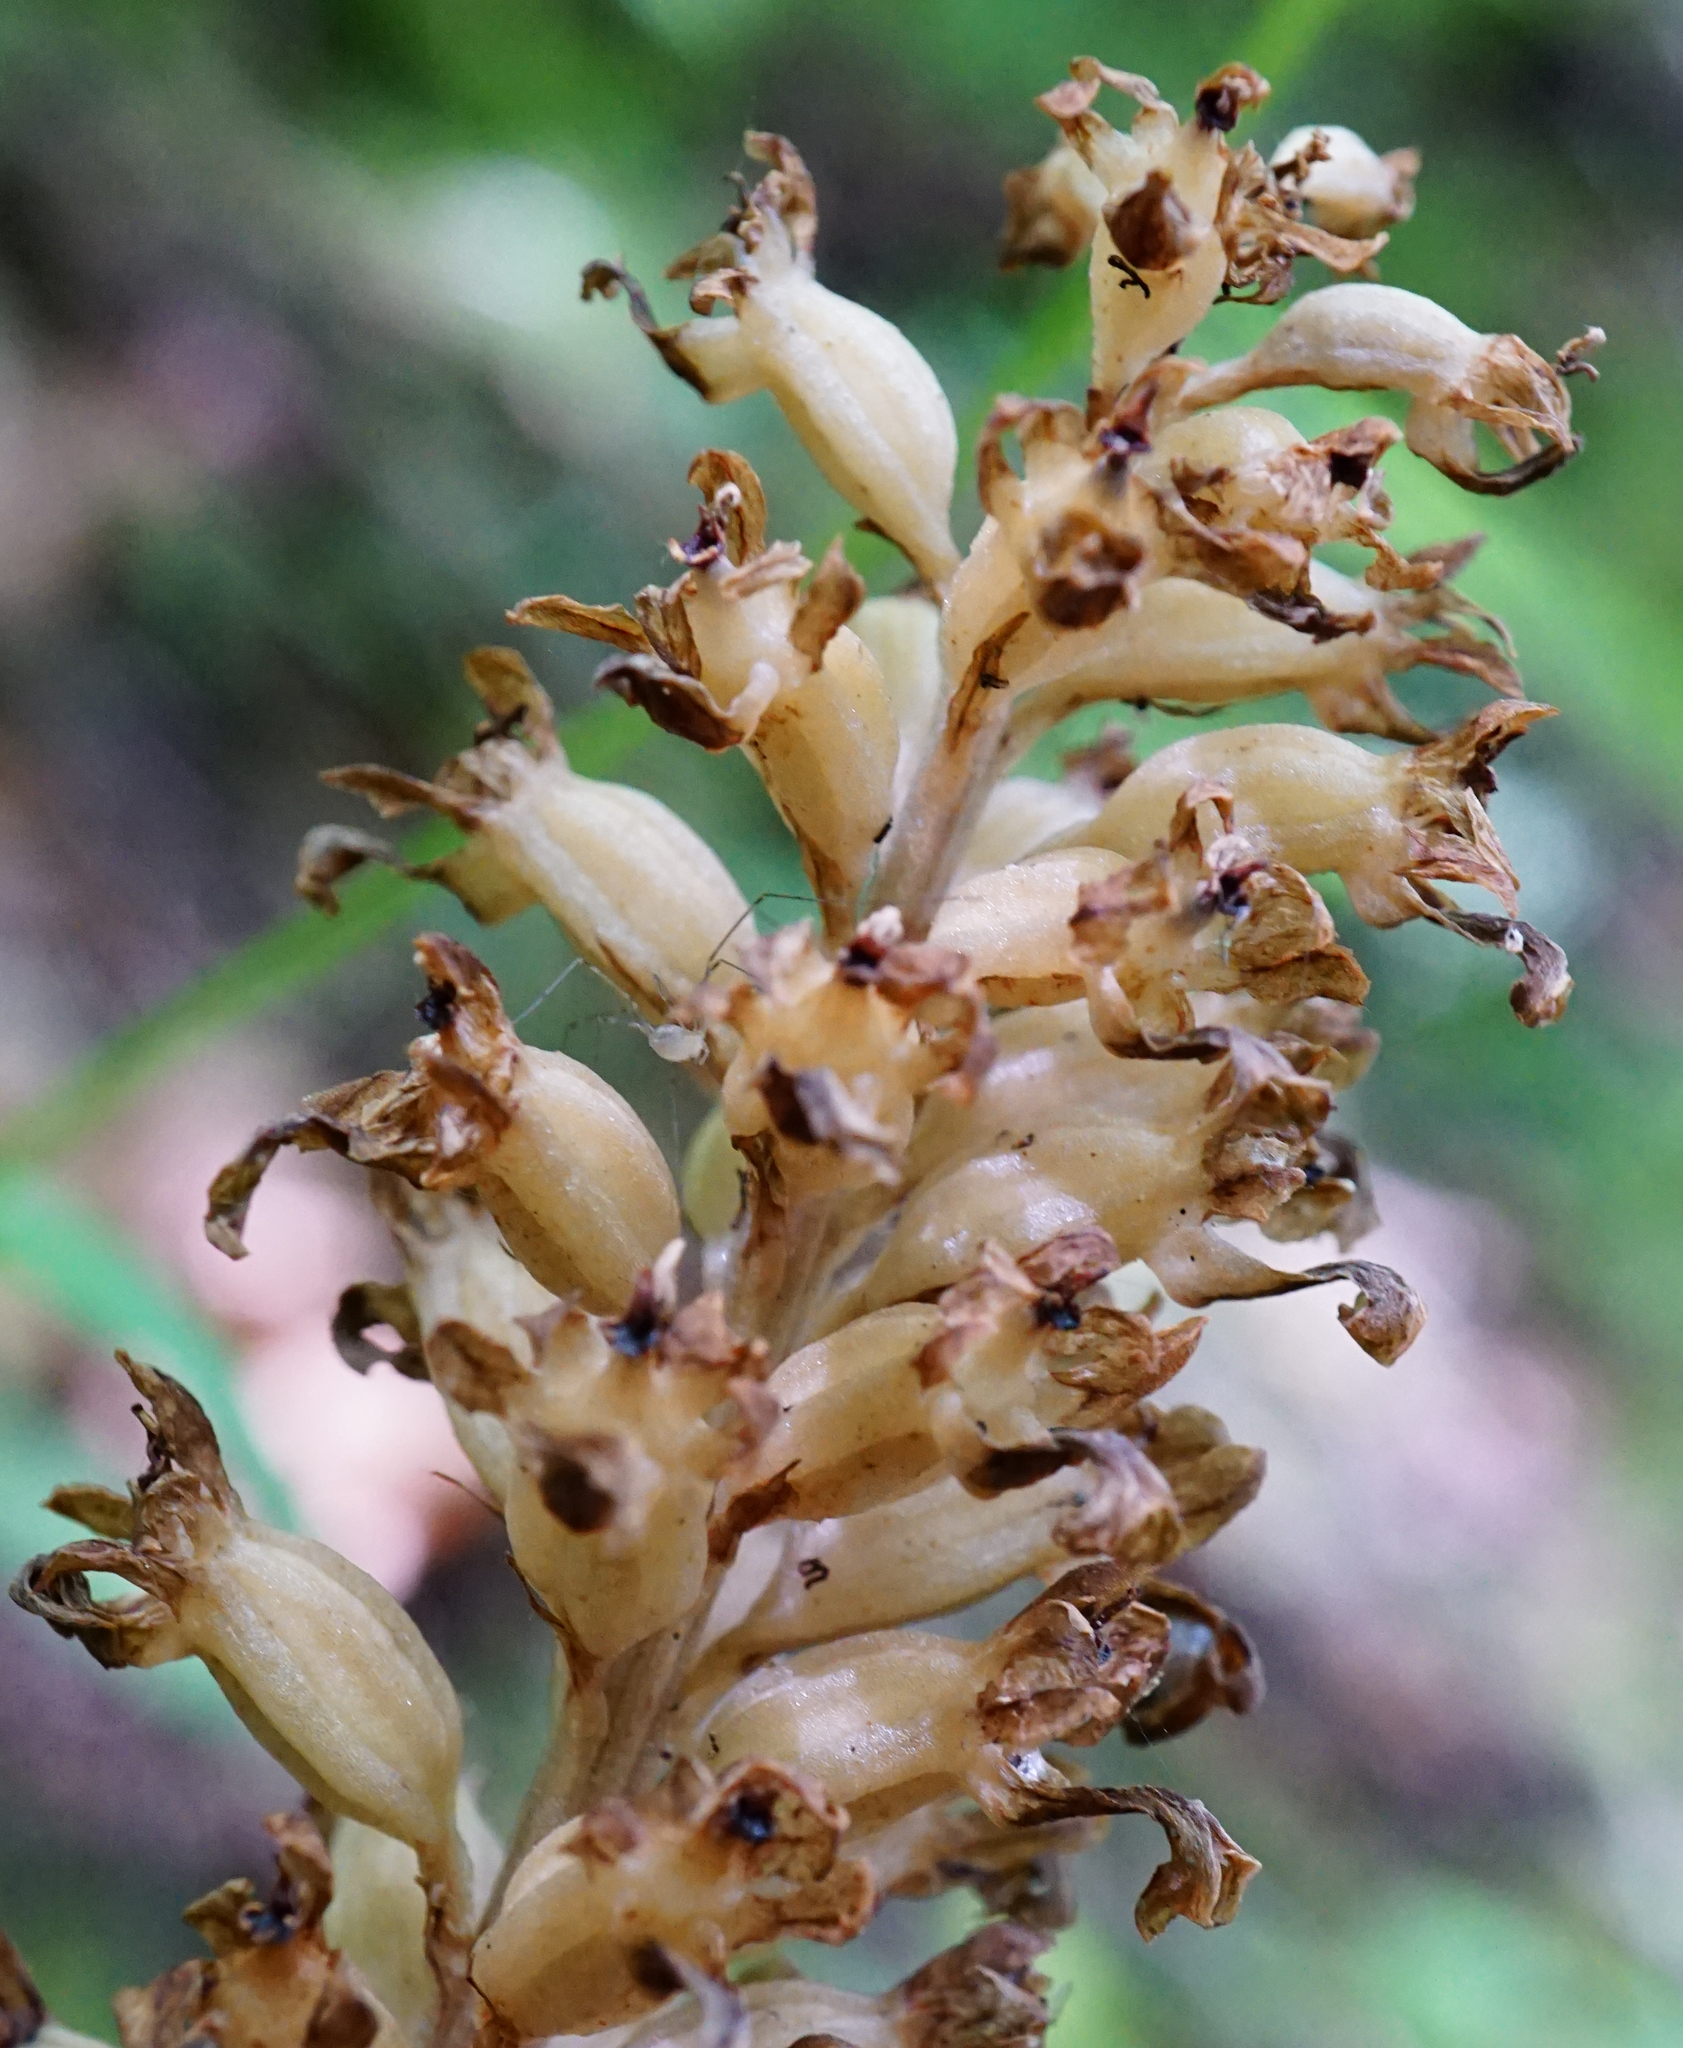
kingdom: Plantae
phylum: Tracheophyta
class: Liliopsida
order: Asparagales
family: Orchidaceae
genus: Neottia
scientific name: Neottia nidus-avis
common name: Bird's-nest orchid
